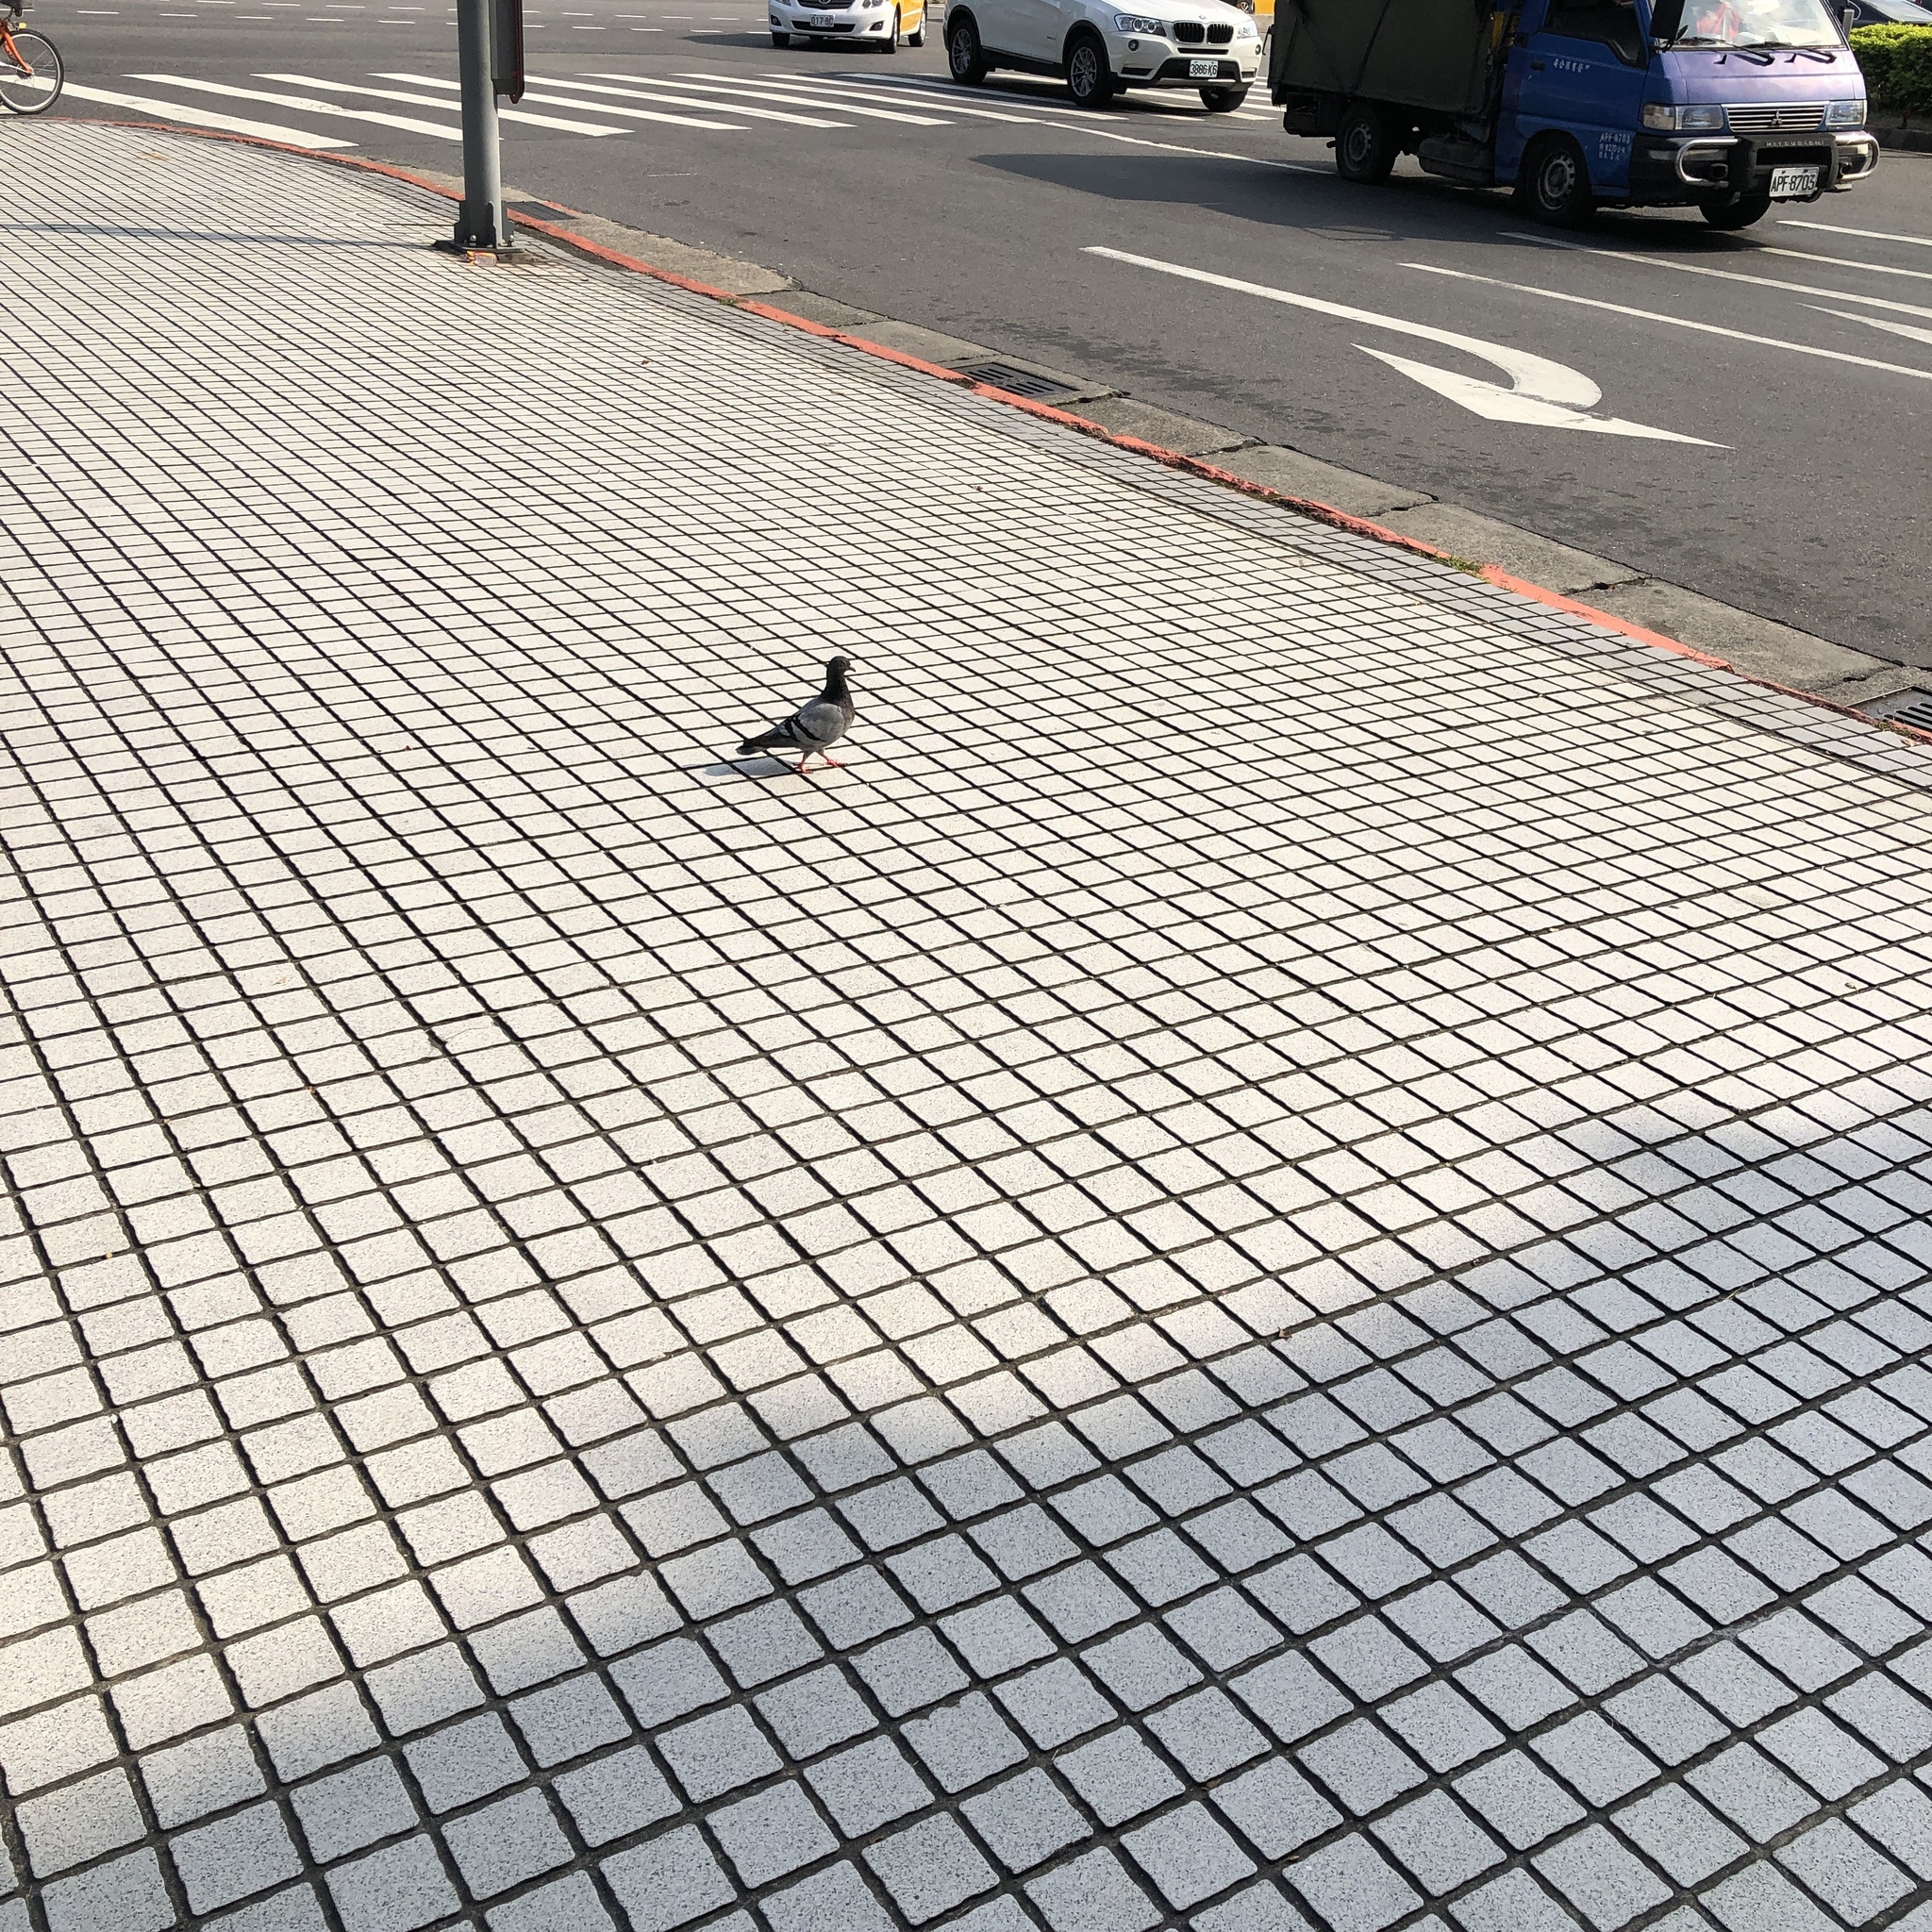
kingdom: Animalia
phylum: Chordata
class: Aves
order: Columbiformes
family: Columbidae
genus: Columba
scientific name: Columba livia
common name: Rock pigeon
